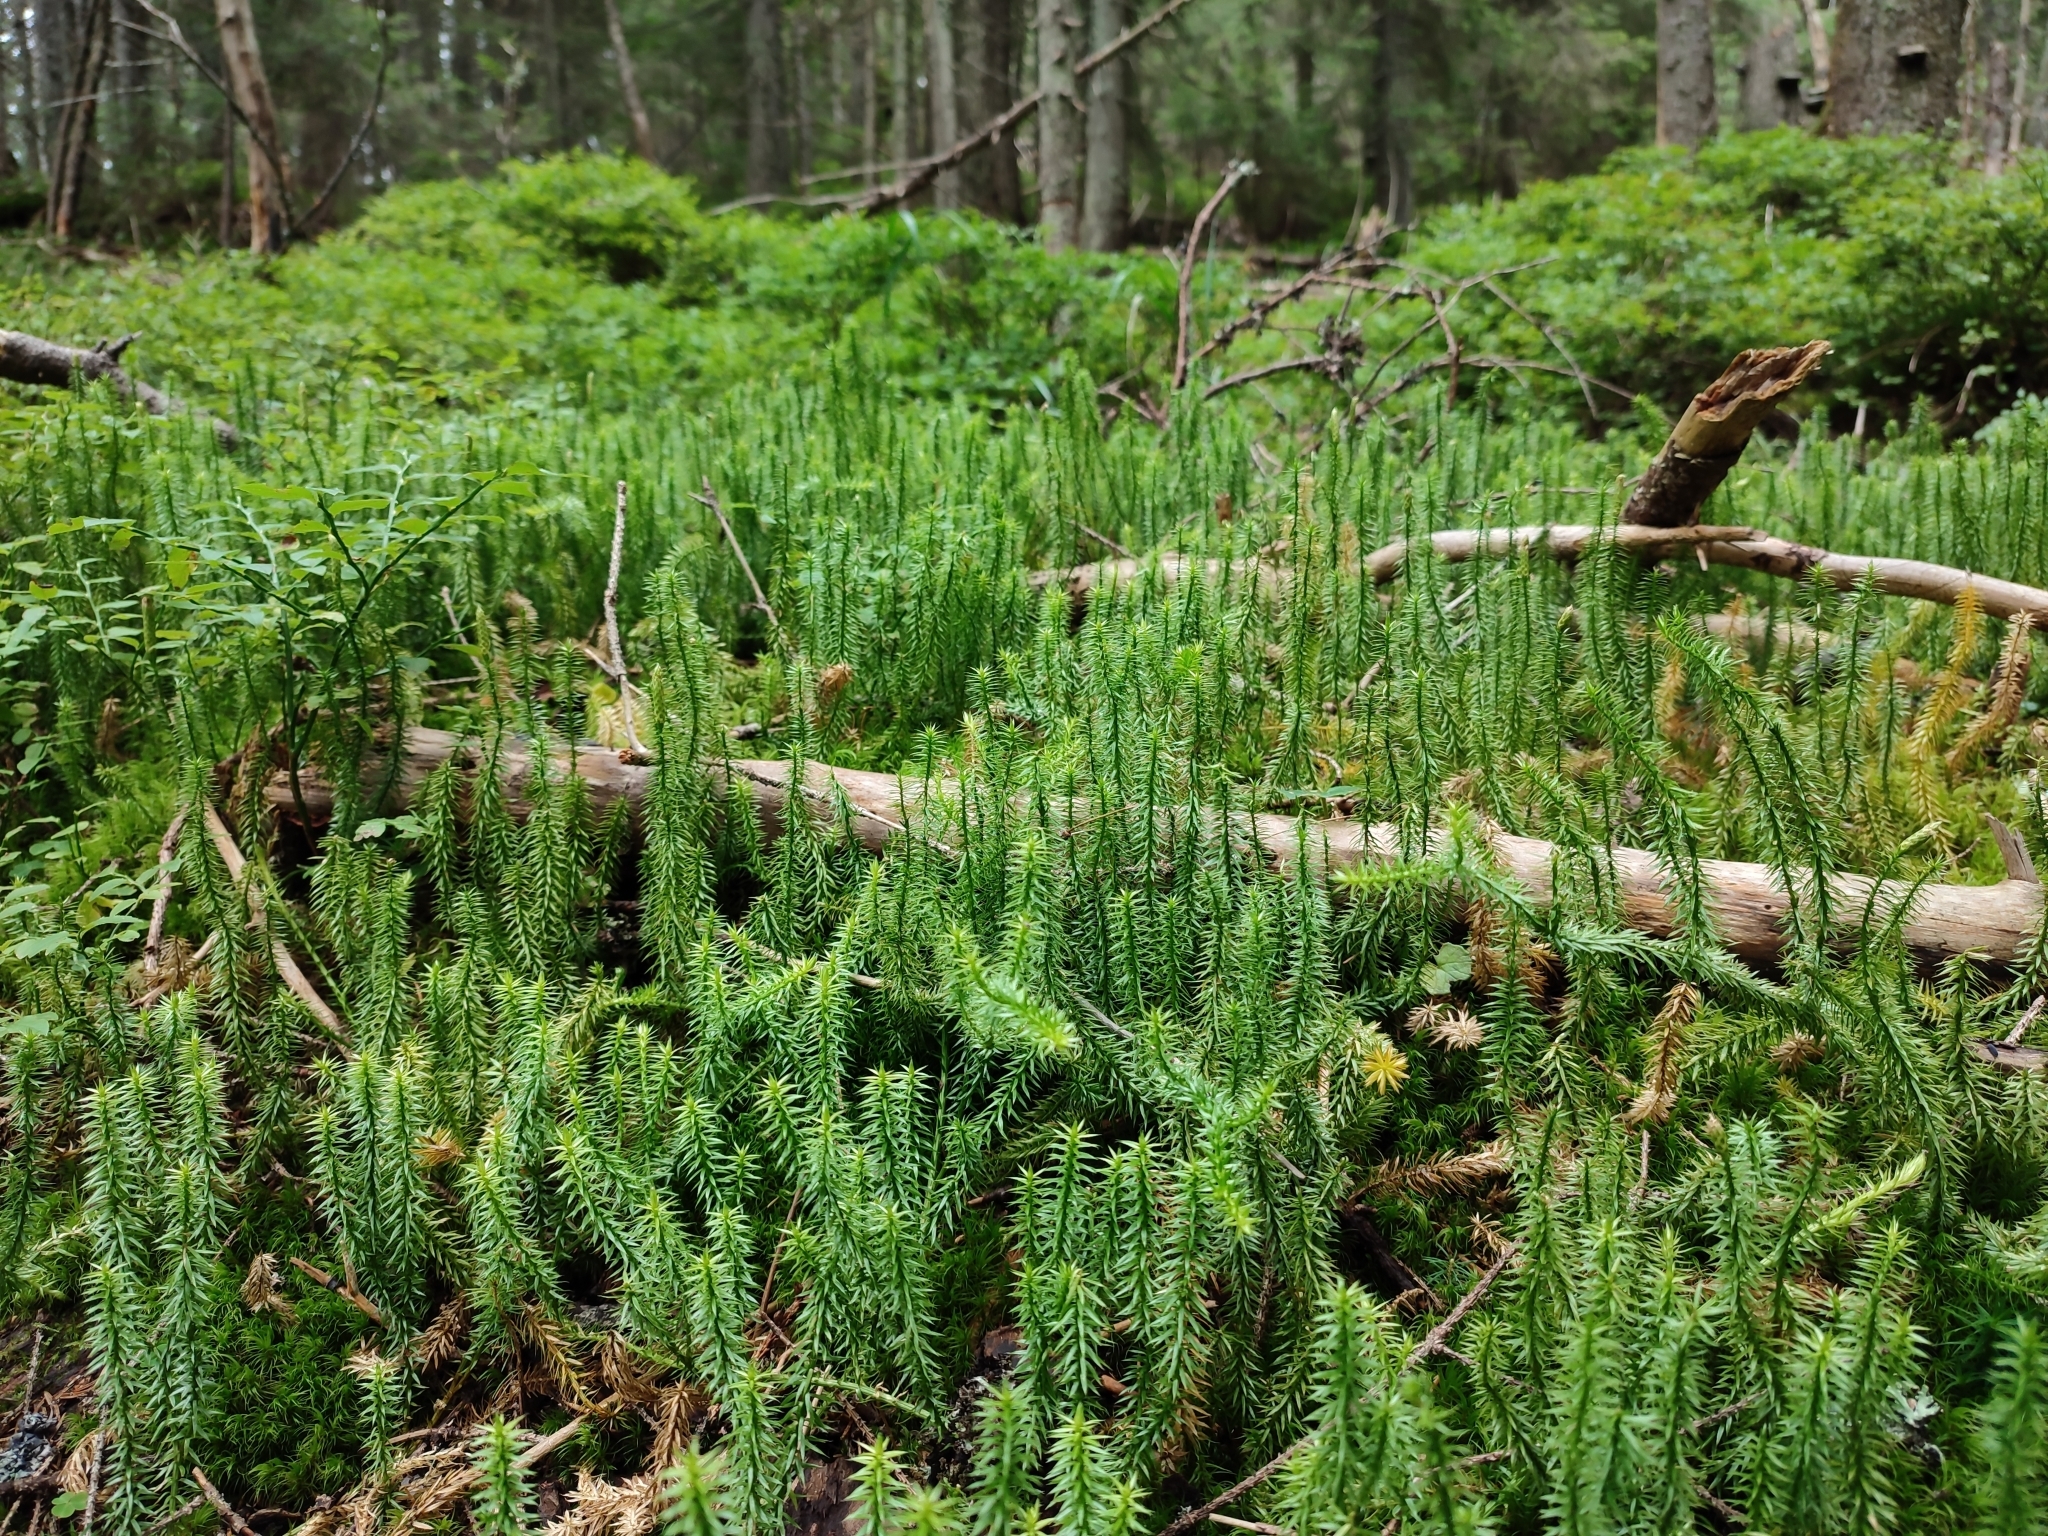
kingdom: Plantae
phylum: Tracheophyta
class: Lycopodiopsida
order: Lycopodiales
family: Lycopodiaceae
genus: Spinulum
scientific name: Spinulum annotinum
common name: Interrupted club-moss
